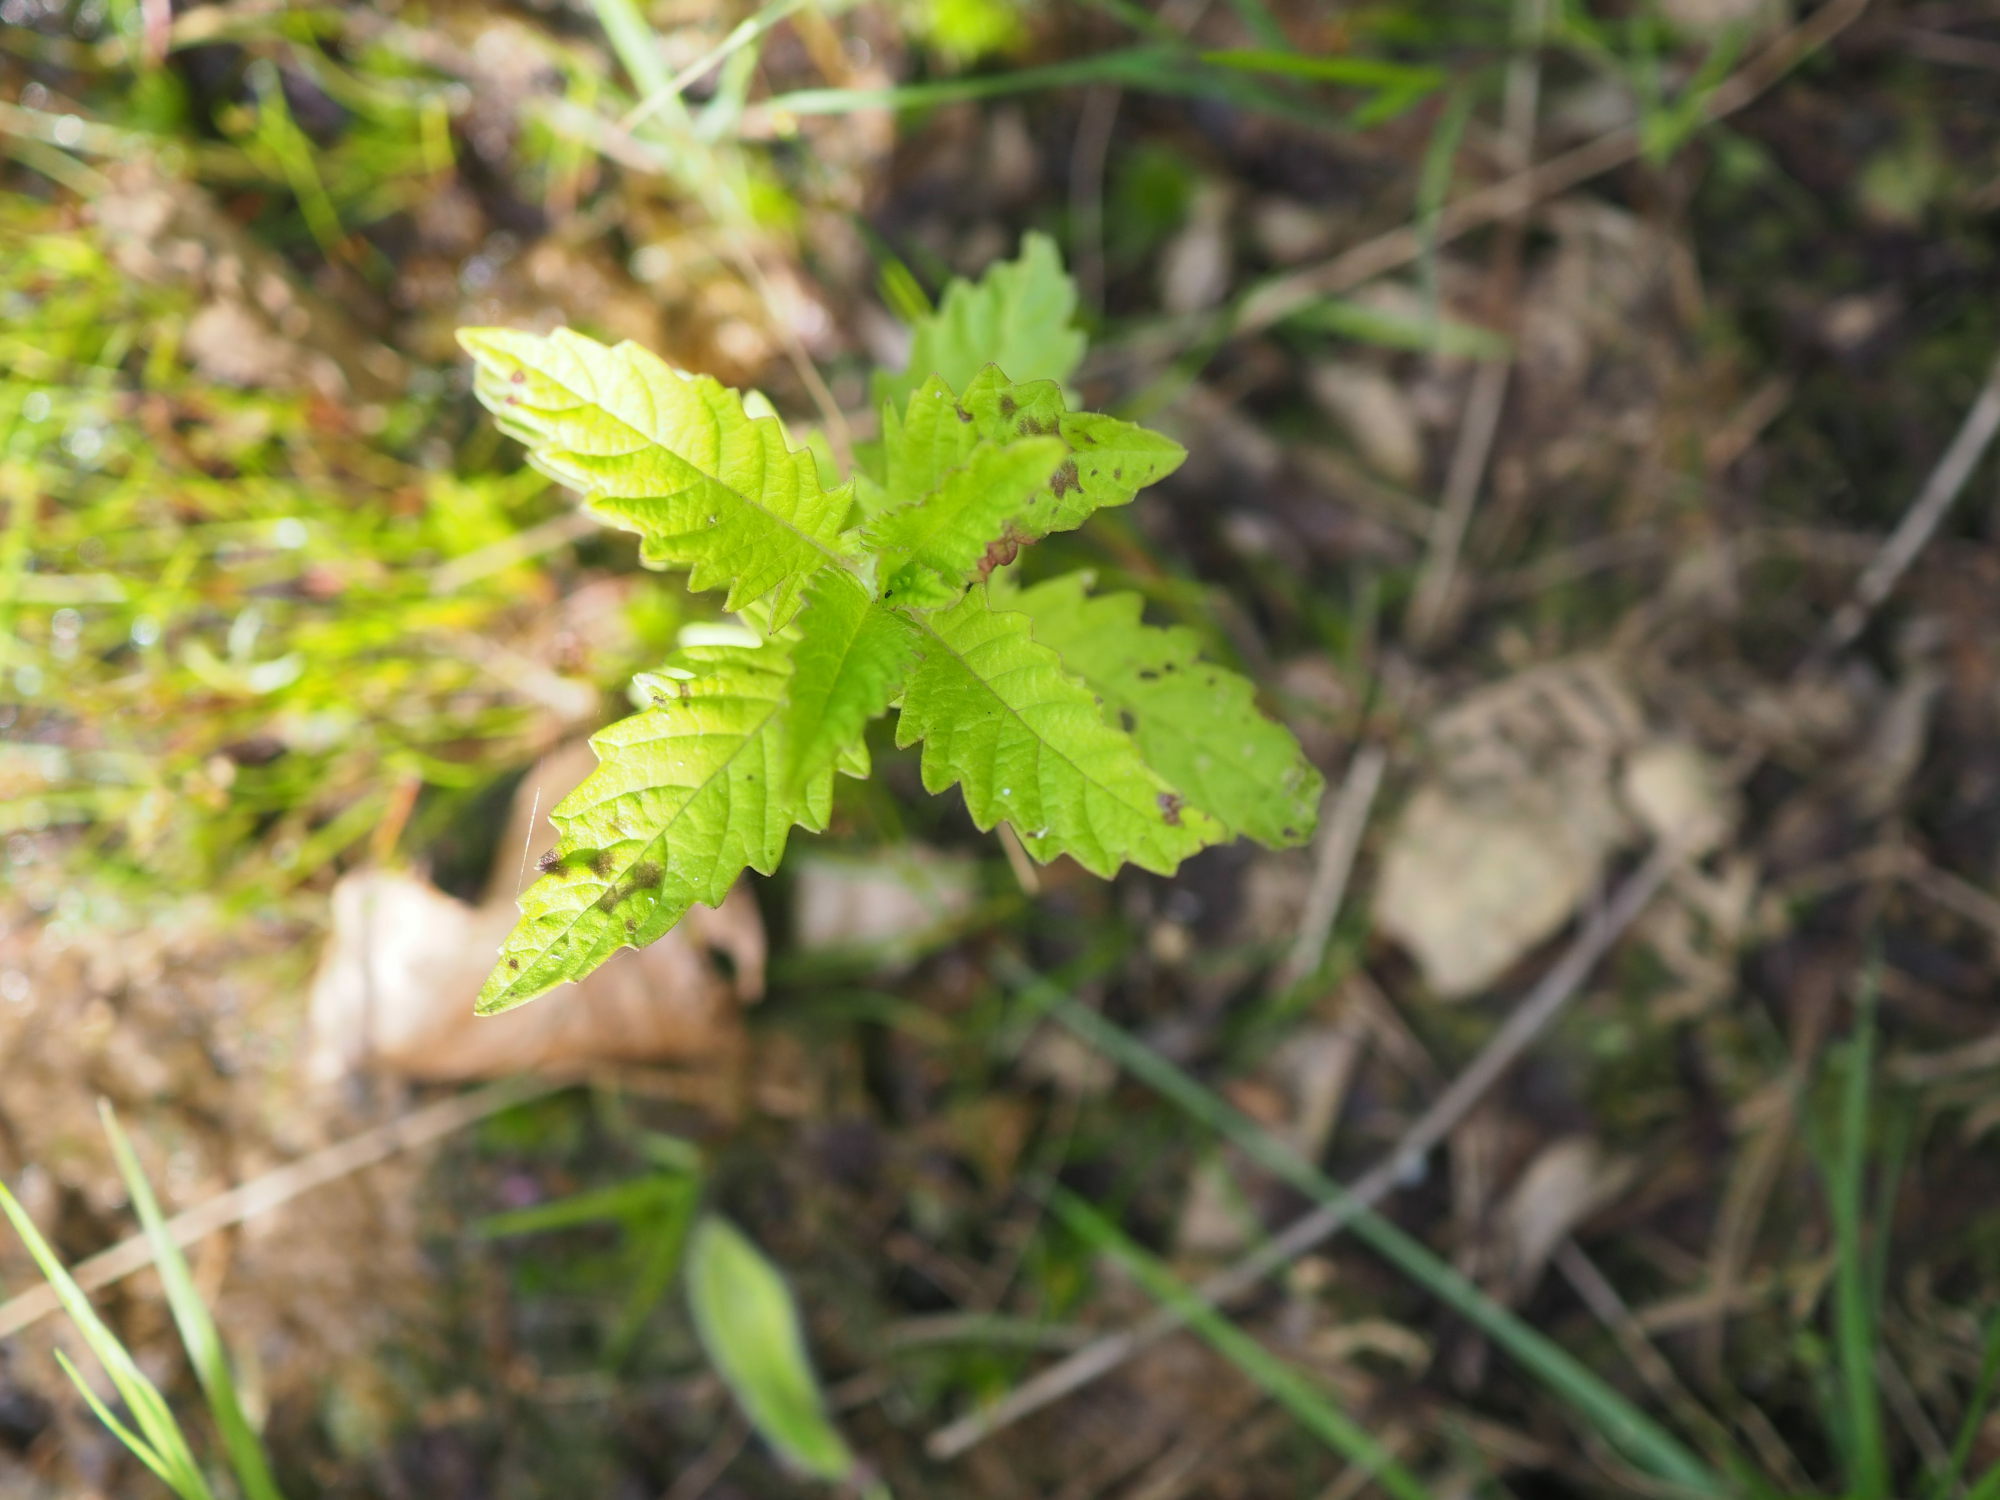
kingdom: Plantae
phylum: Tracheophyta
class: Magnoliopsida
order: Lamiales
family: Lamiaceae
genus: Lycopus
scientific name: Lycopus europaeus
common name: European bugleweed
